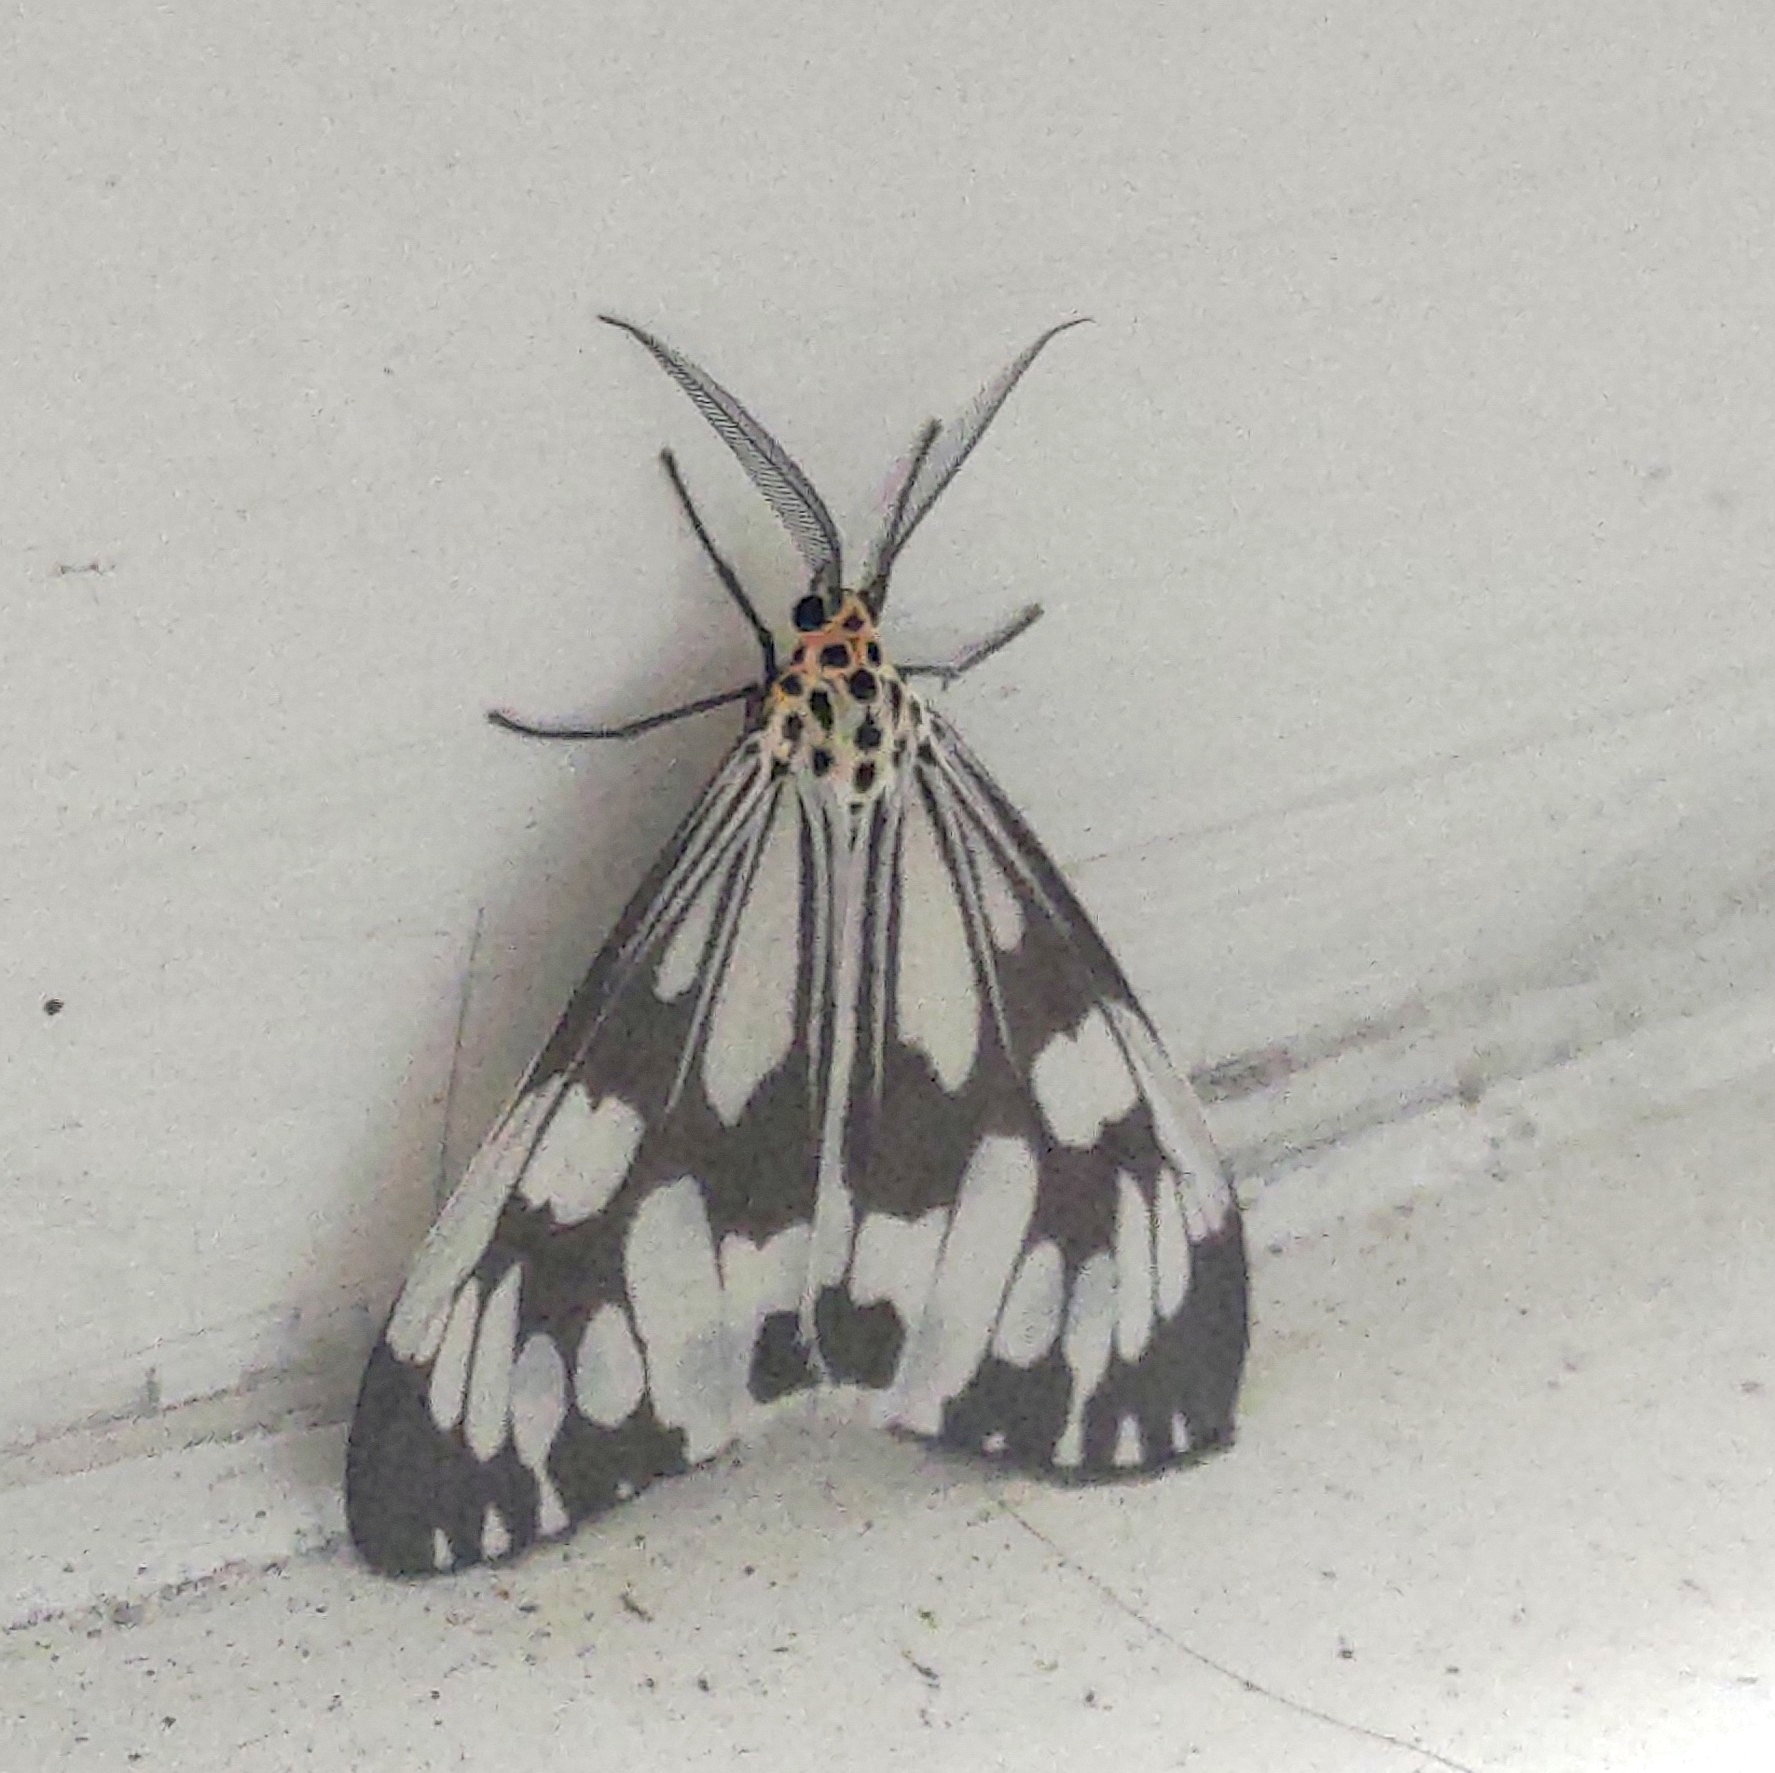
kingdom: Animalia
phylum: Arthropoda
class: Insecta
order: Lepidoptera
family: Erebidae
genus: Nyctemera
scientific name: Nyctemera adversata
